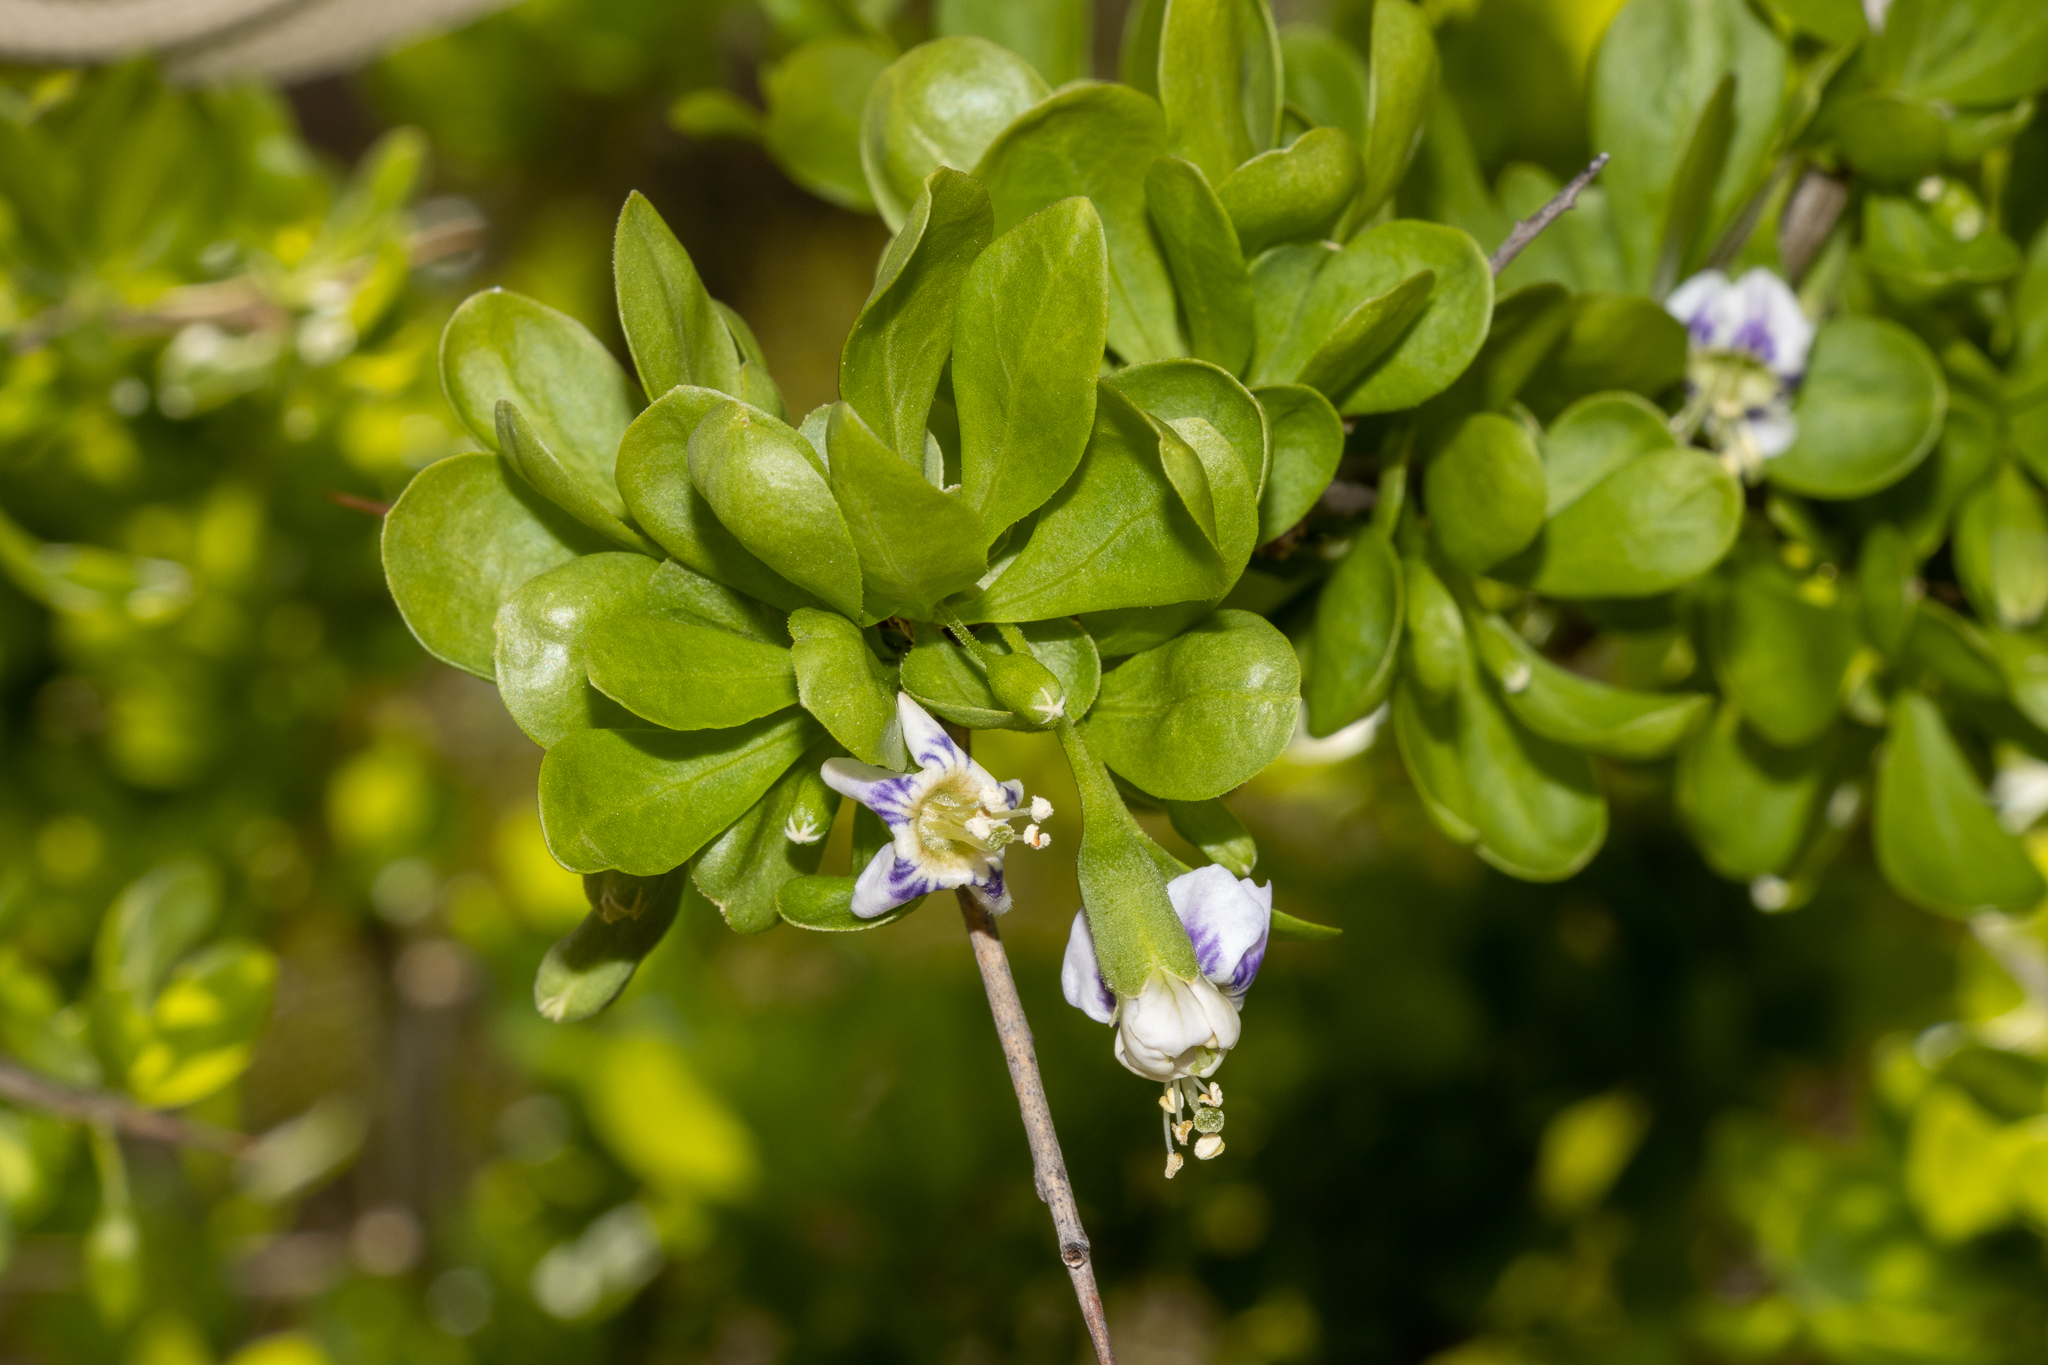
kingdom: Plantae
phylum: Tracheophyta
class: Magnoliopsida
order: Solanales
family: Solanaceae
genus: Lycium
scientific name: Lycium ferocissimum
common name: African boxthorn
